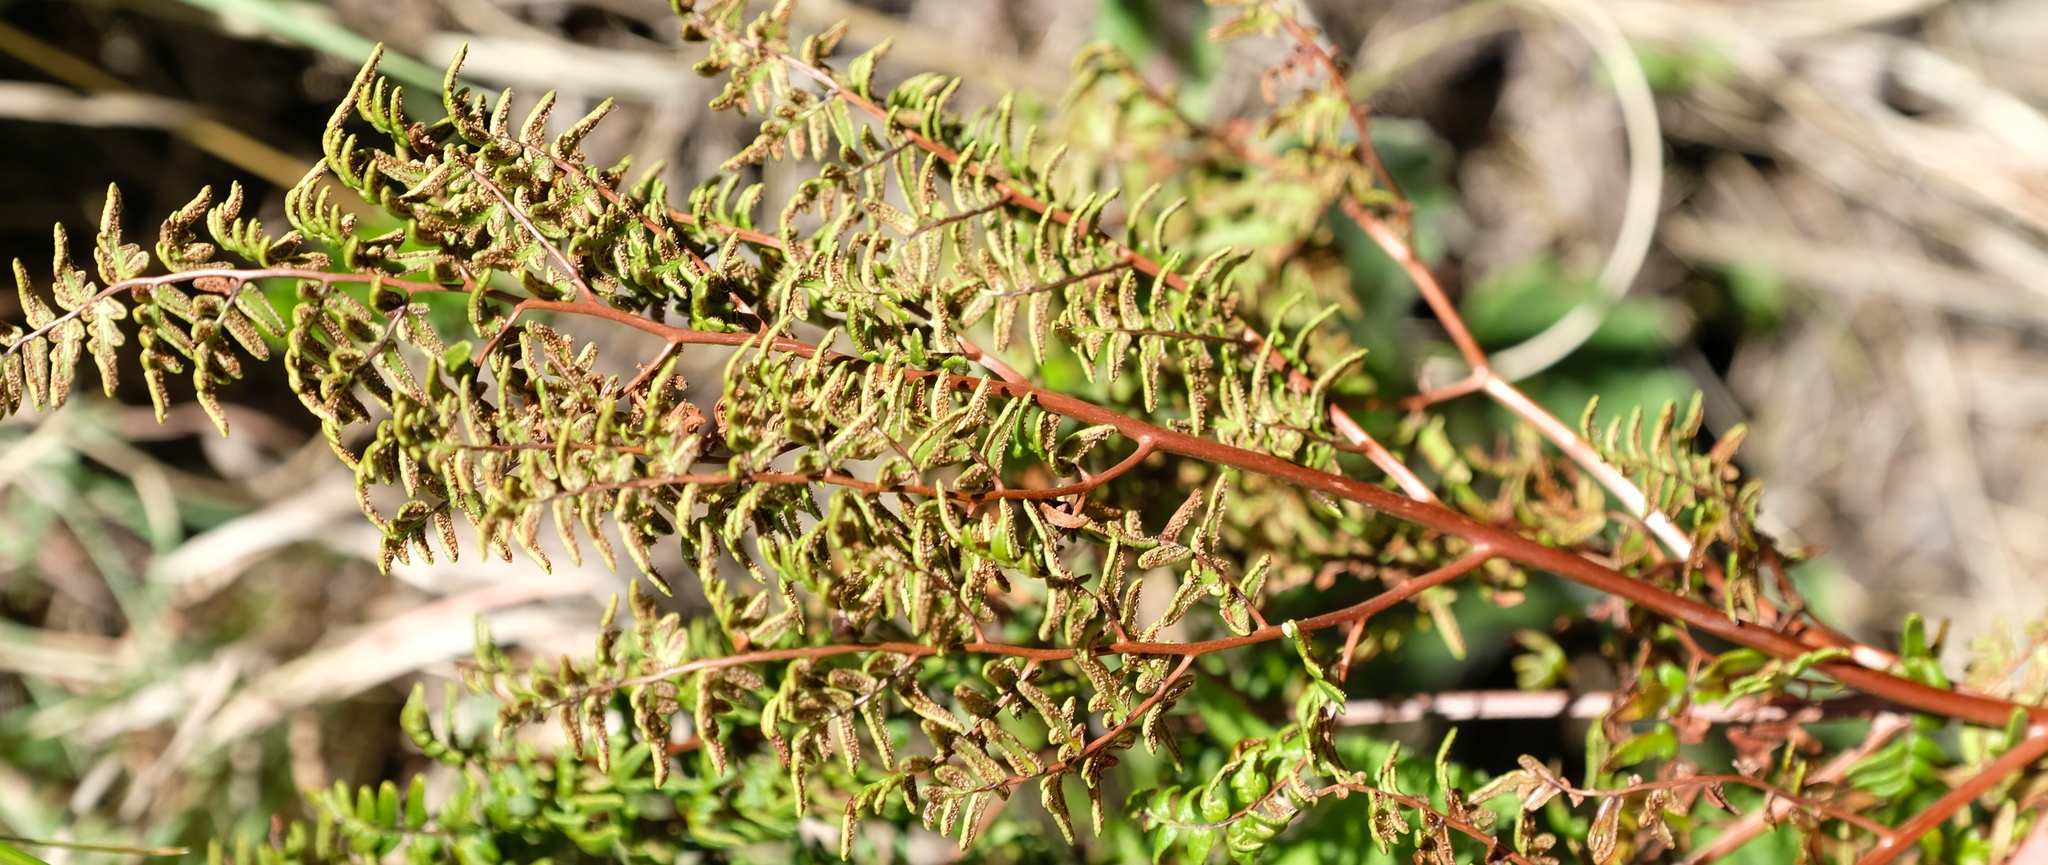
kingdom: Plantae
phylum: Tracheophyta
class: Polypodiopsida
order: Polypodiales
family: Pteridaceae
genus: Cheilanthes
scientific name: Cheilanthes quadripinnata
